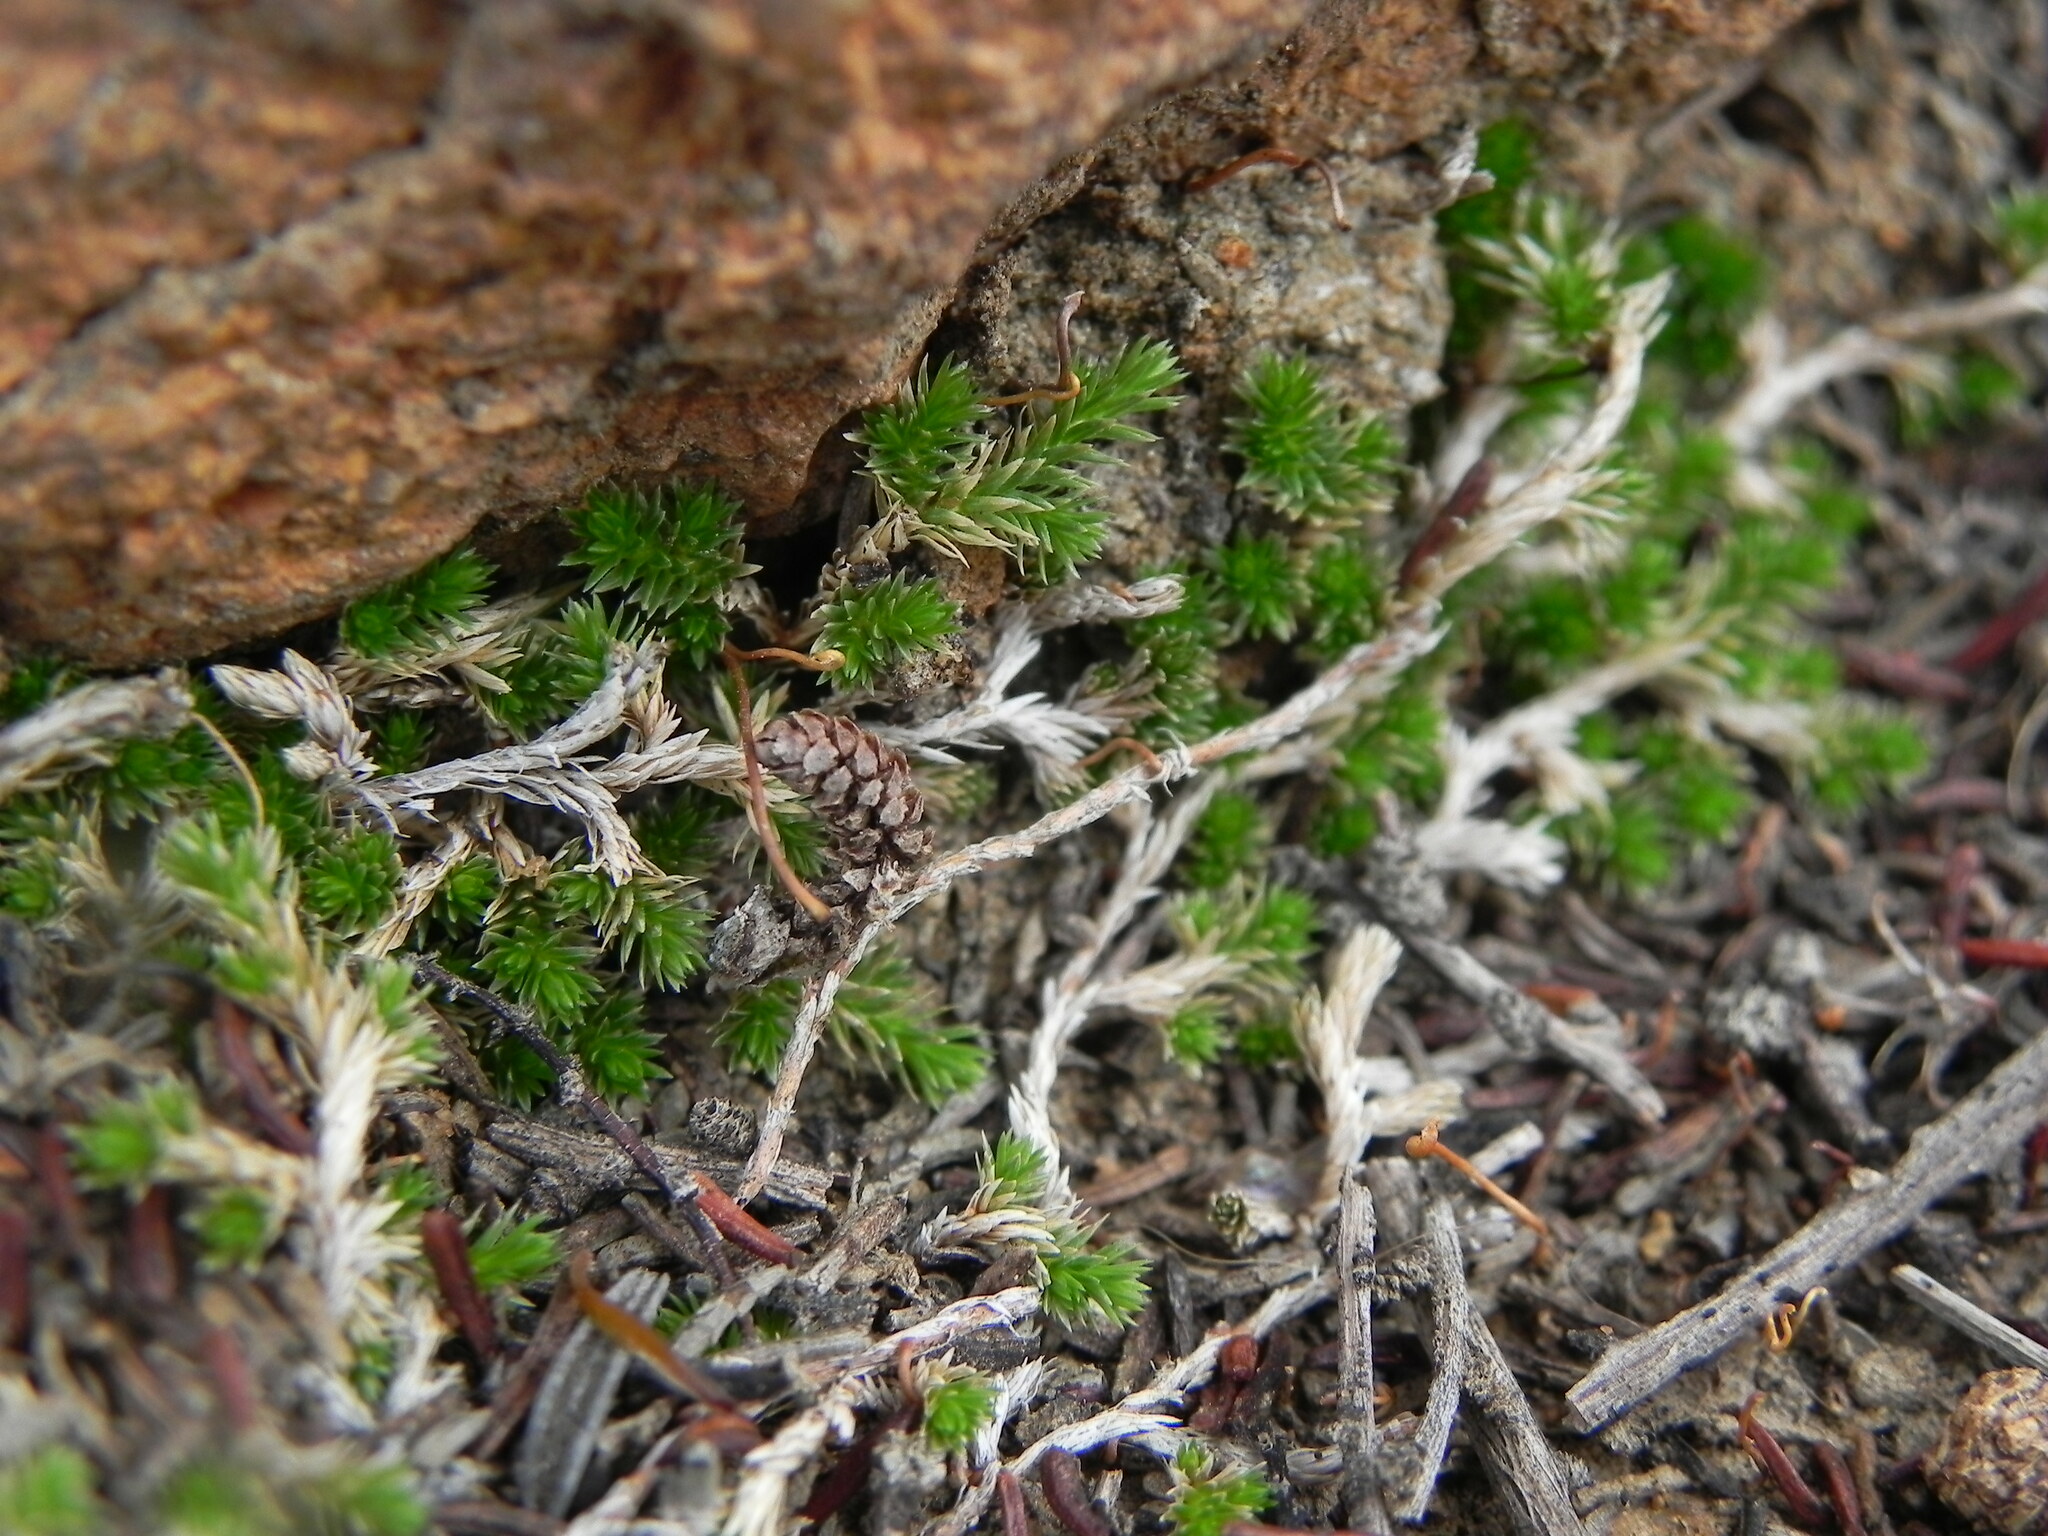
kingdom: Plantae
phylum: Tracheophyta
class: Lycopodiopsida
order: Selaginellales
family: Selaginellaceae
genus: Selaginella
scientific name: Selaginella cinerascens
